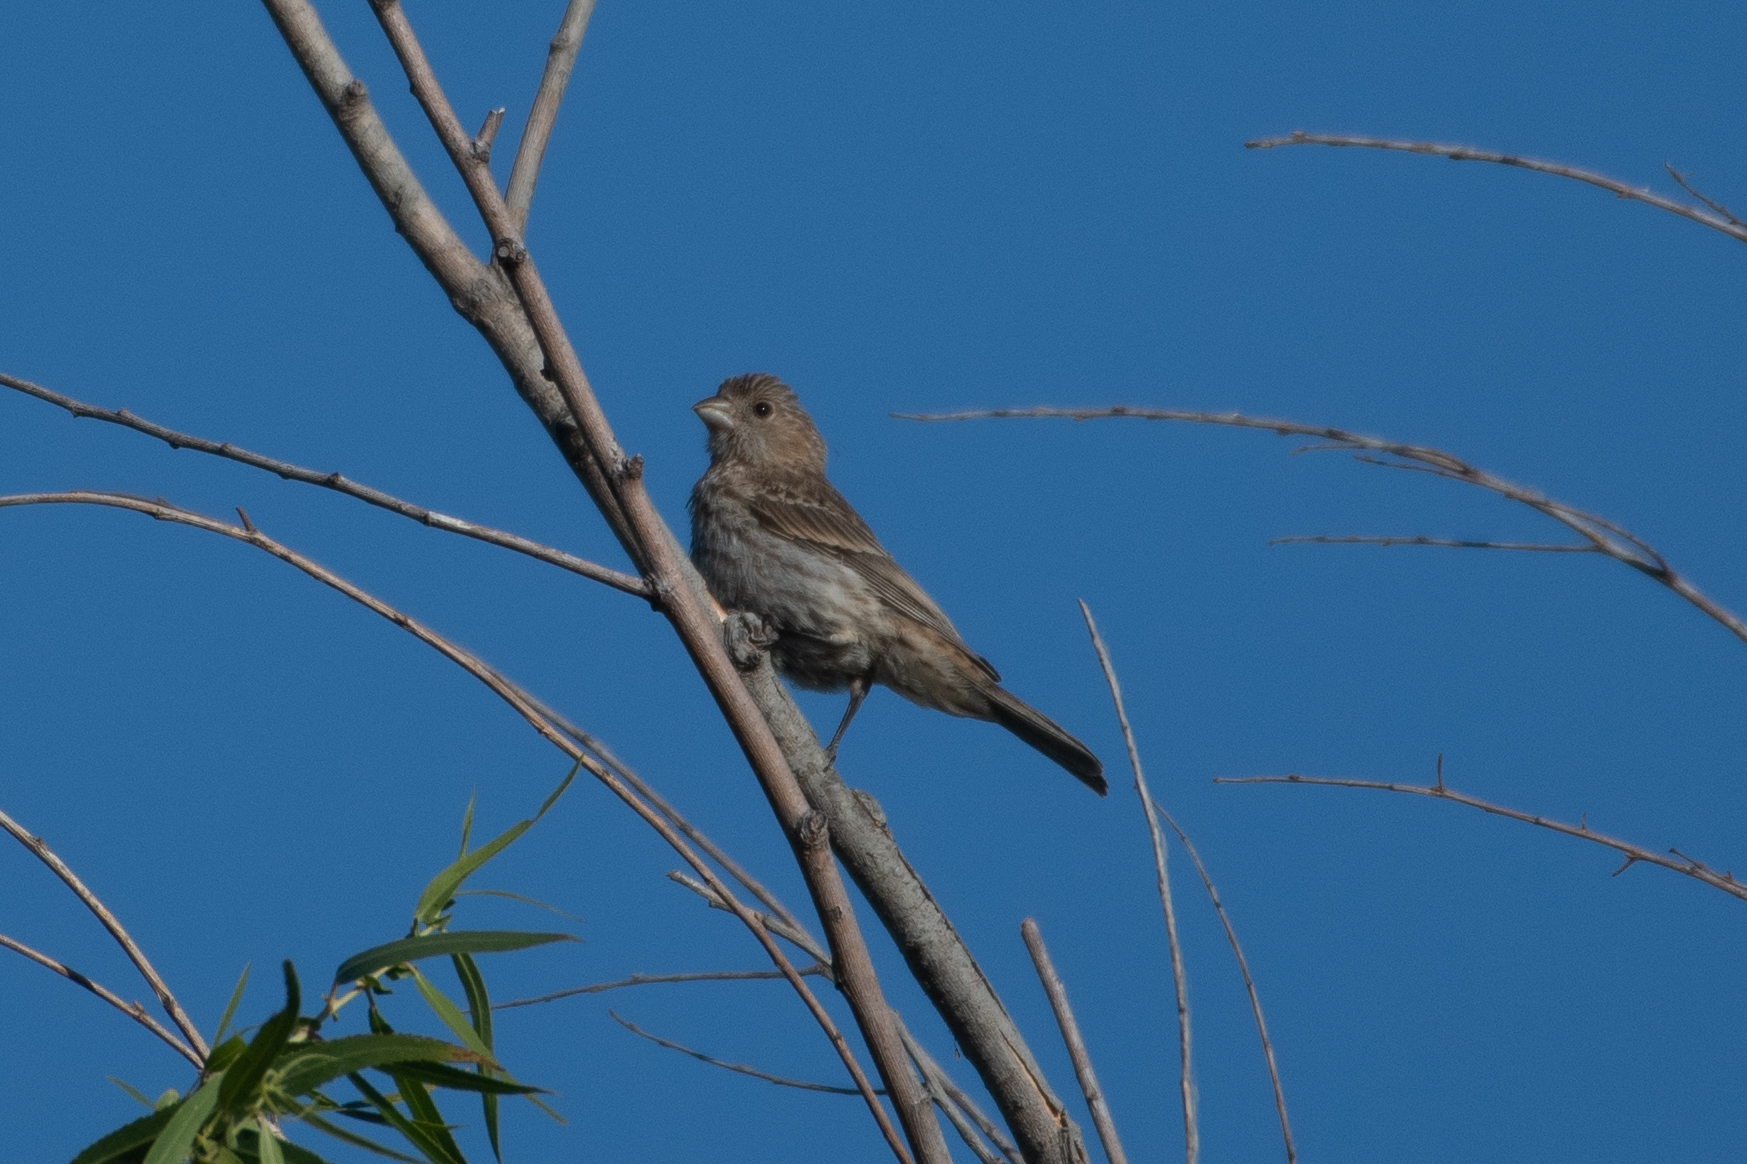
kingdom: Animalia
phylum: Chordata
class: Aves
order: Passeriformes
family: Fringillidae
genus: Haemorhous
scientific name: Haemorhous mexicanus
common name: House finch
